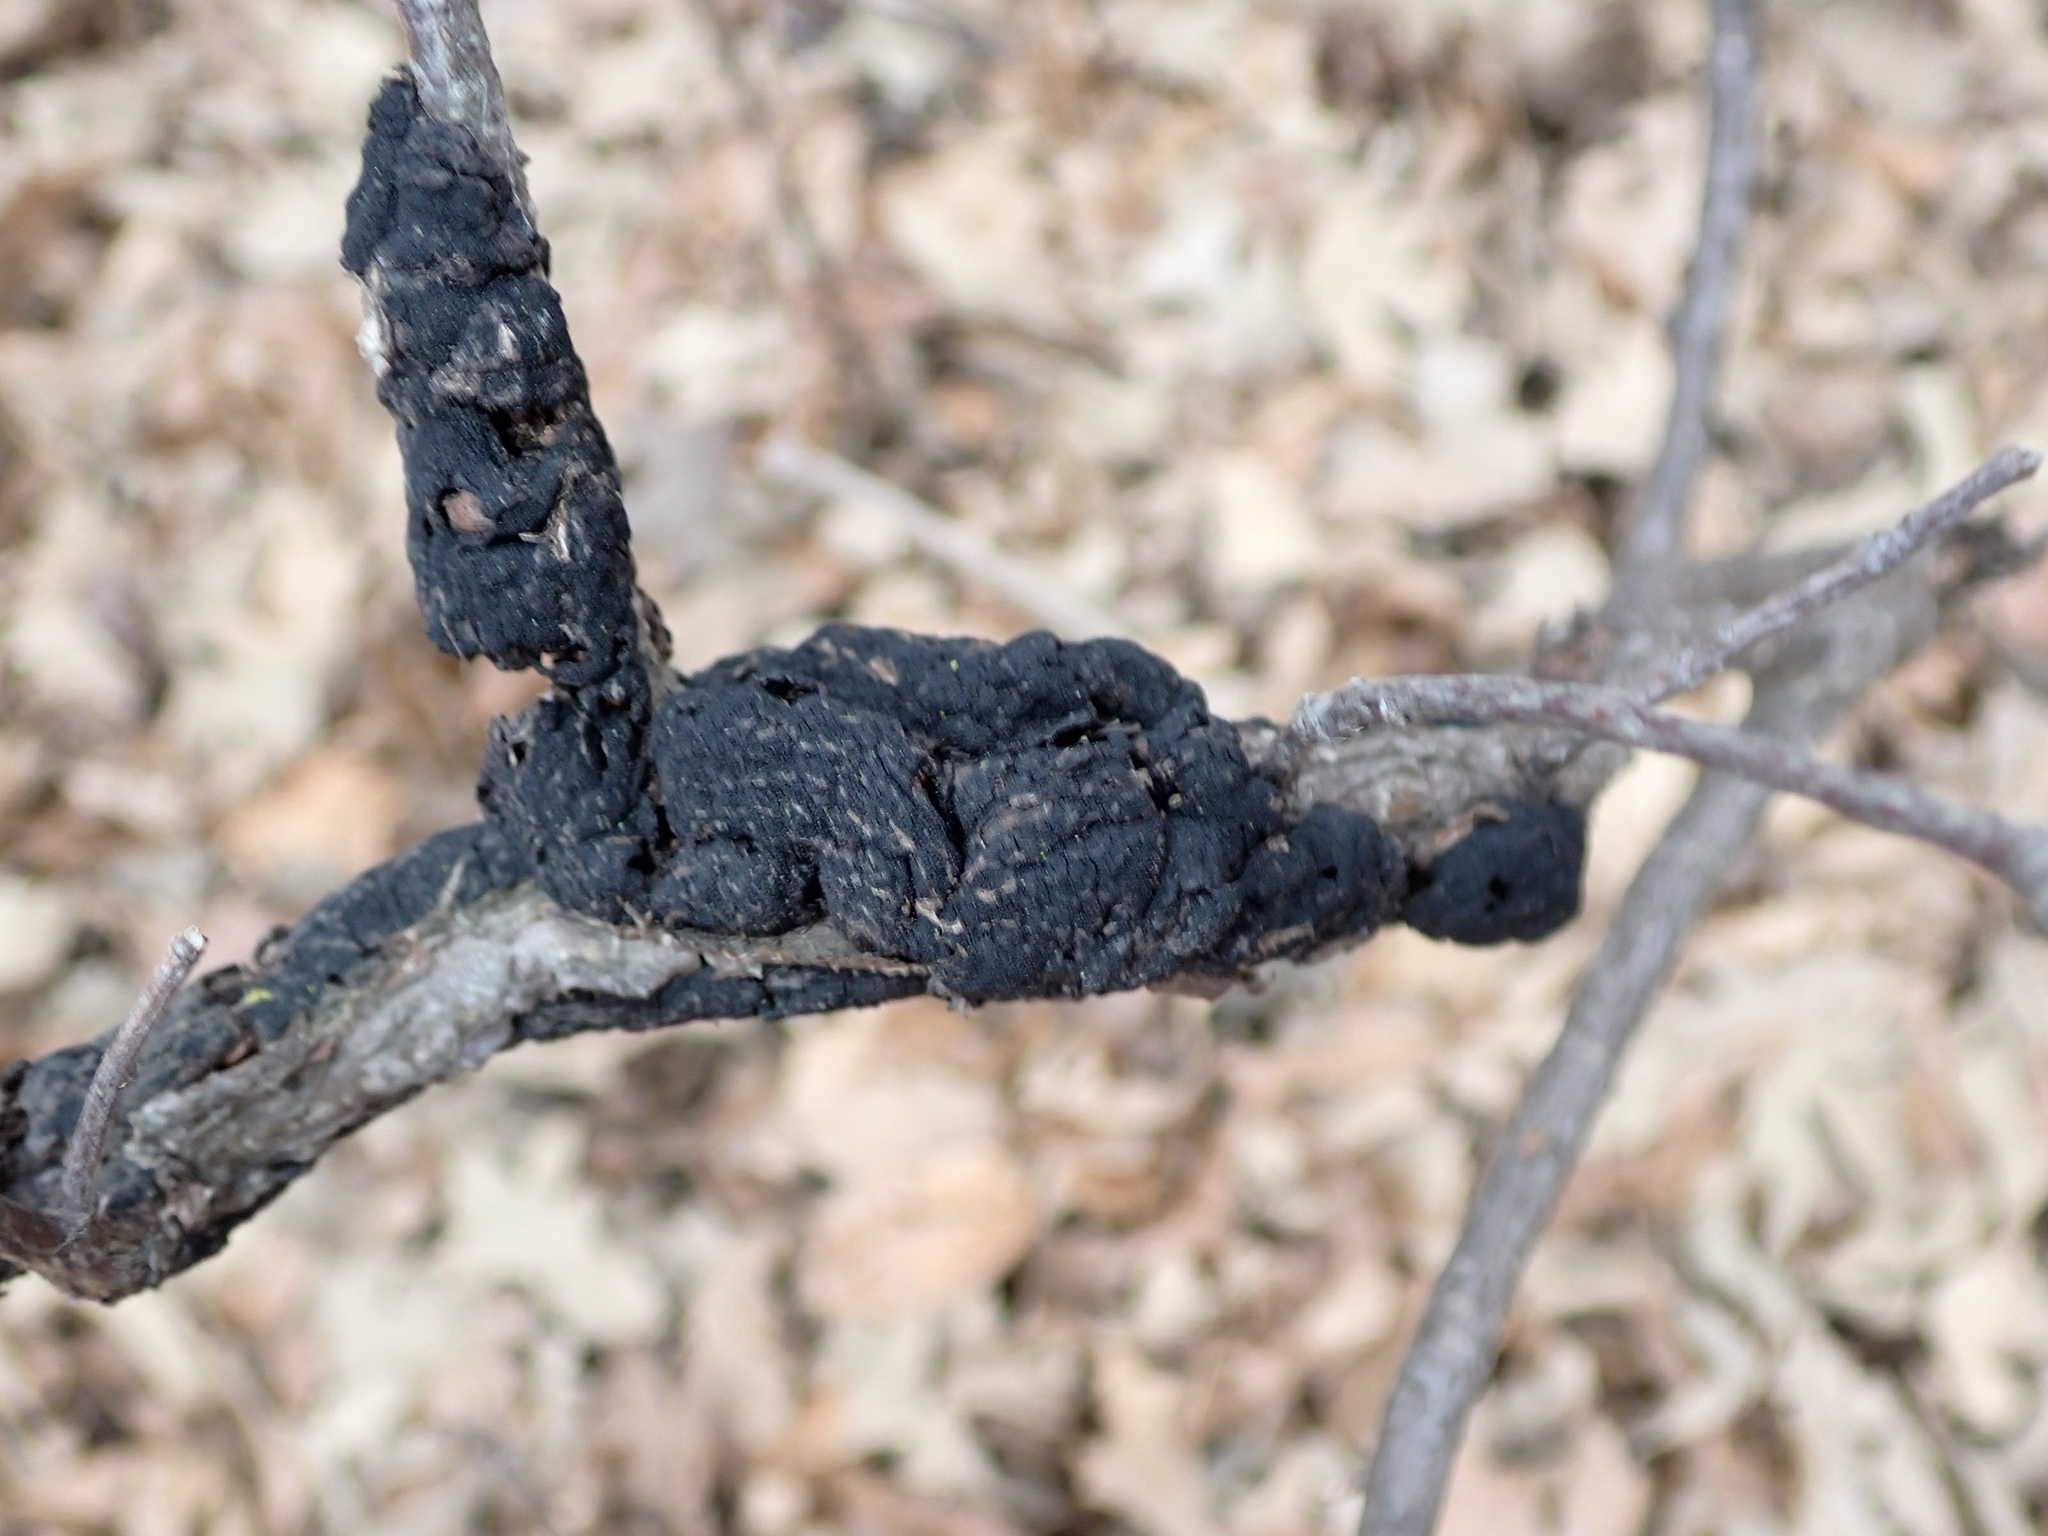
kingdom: Fungi
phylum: Ascomycota
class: Dothideomycetes
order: Venturiales
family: Venturiaceae
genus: Apiosporina
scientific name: Apiosporina morbosa
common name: Black knot
